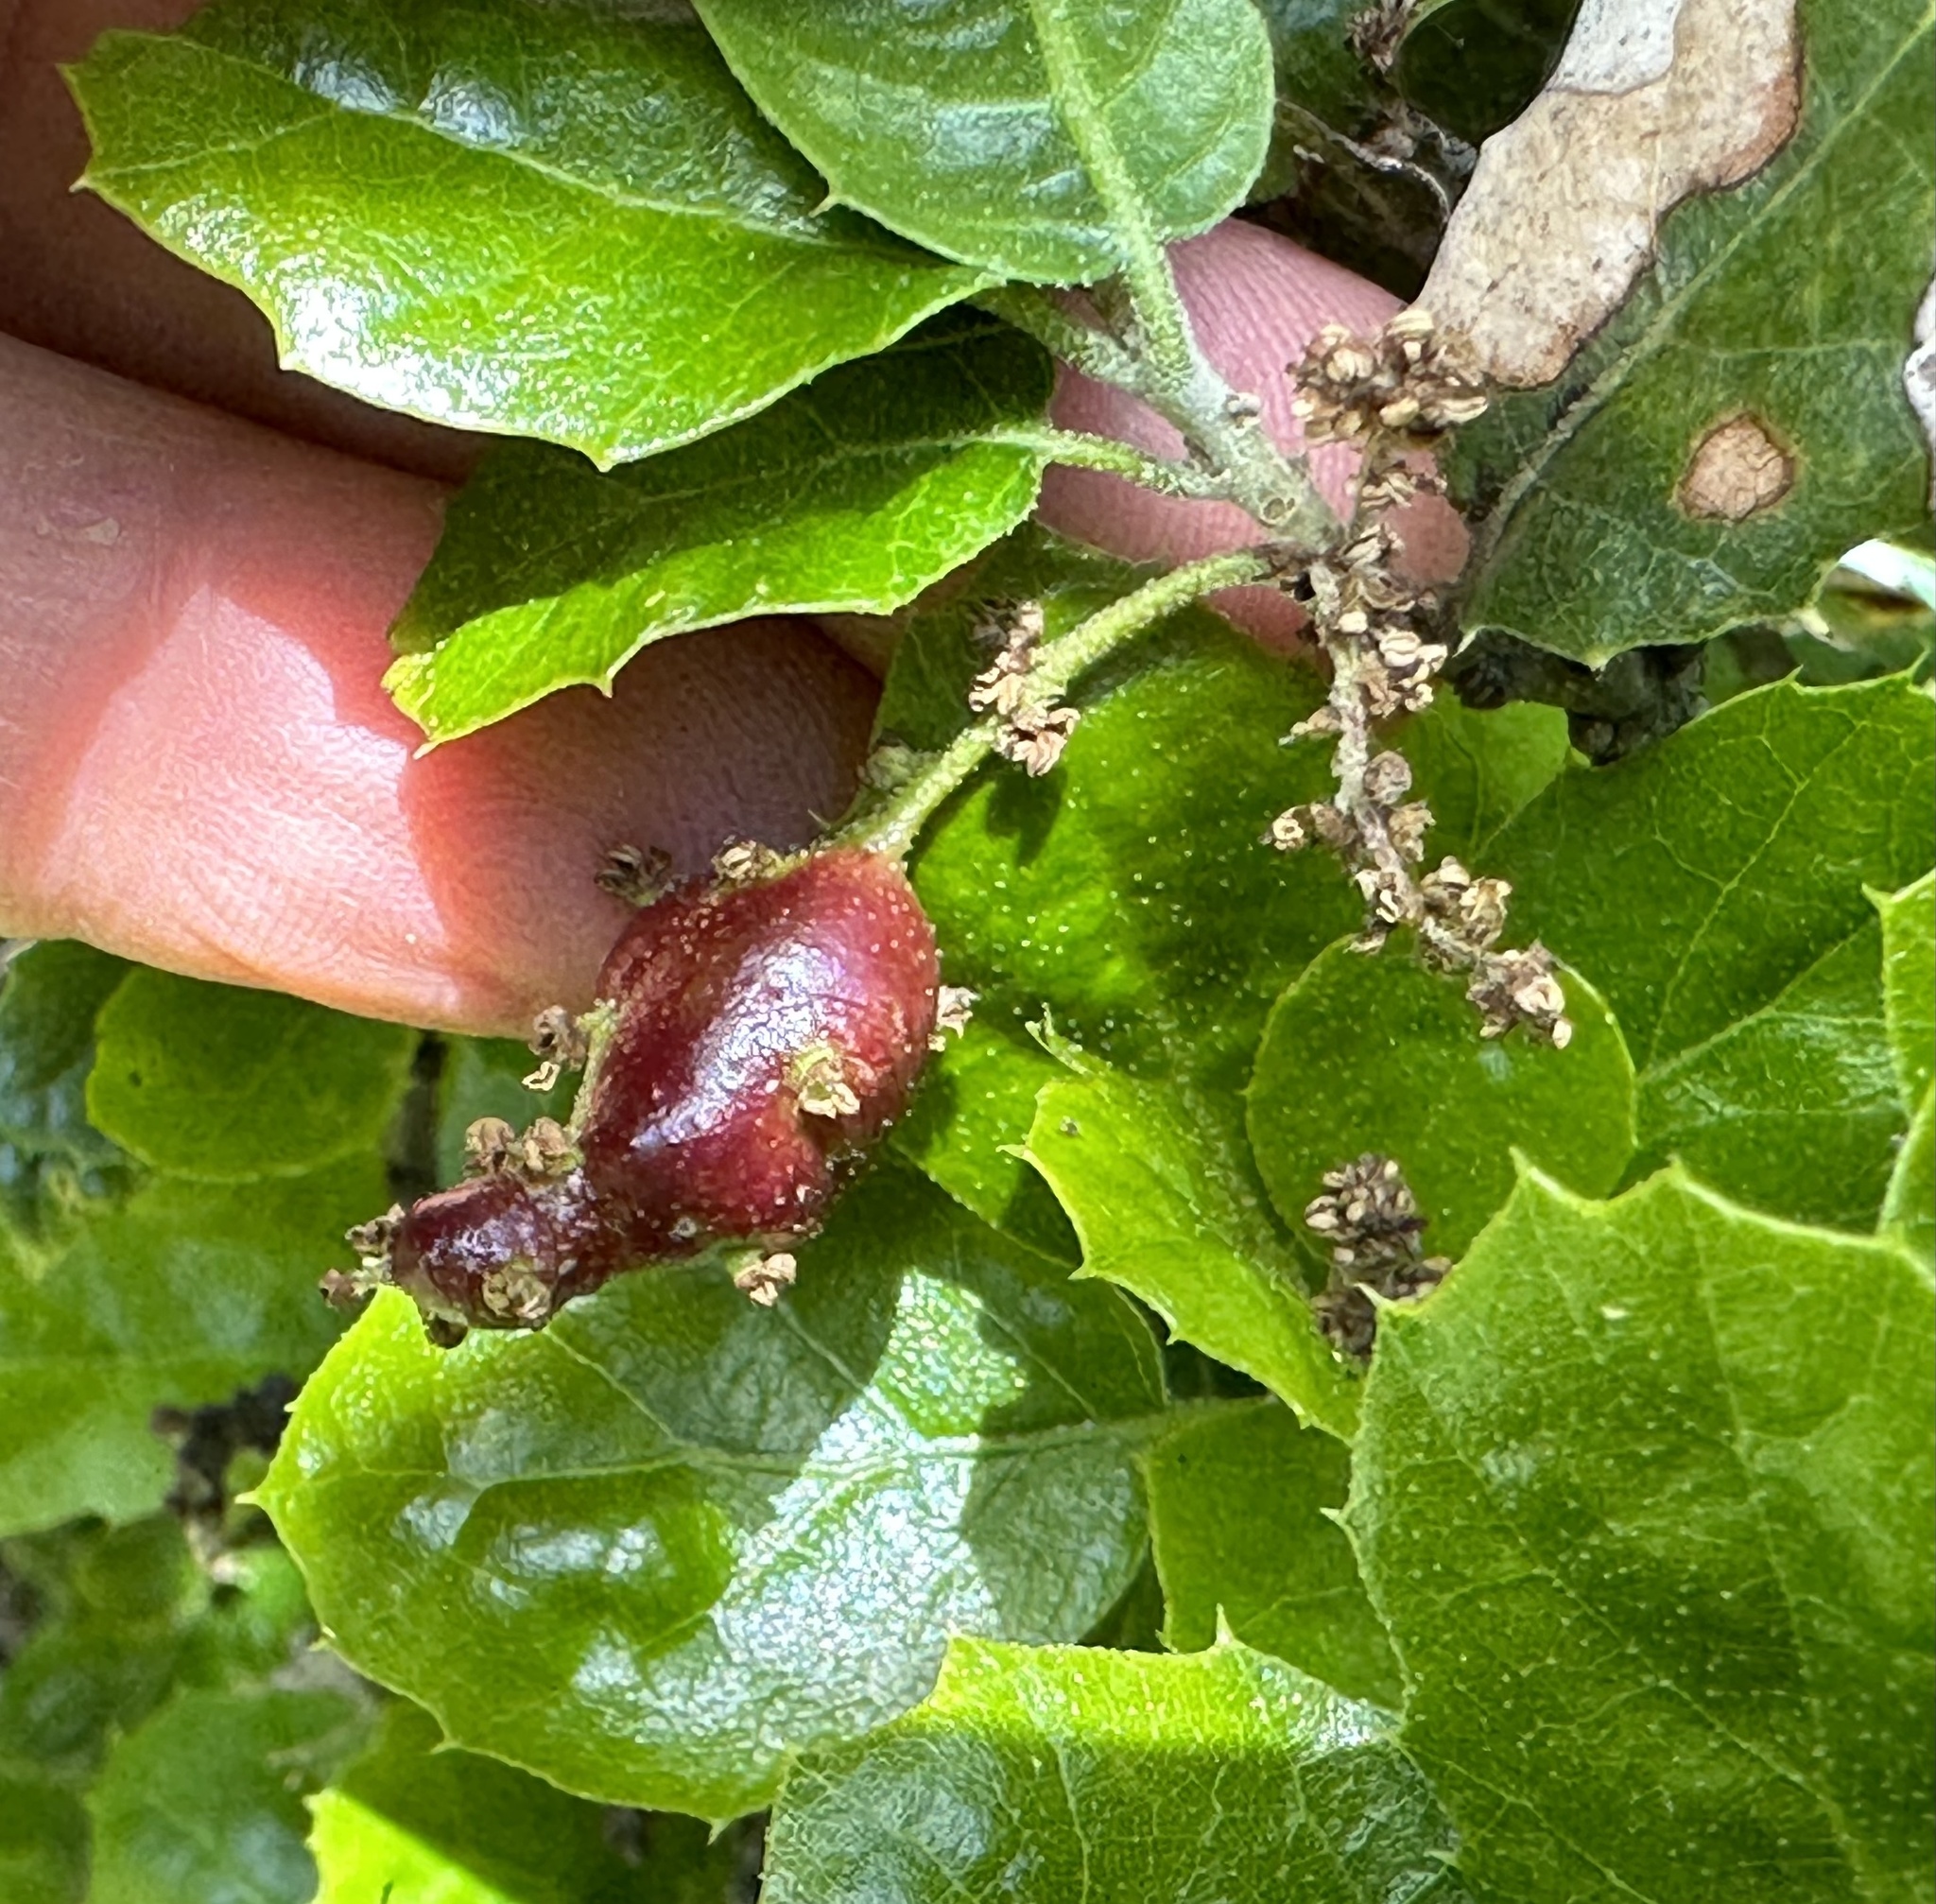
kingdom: Animalia
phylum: Arthropoda
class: Insecta
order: Hymenoptera
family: Cynipidae
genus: Callirhytis
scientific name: Callirhytis
